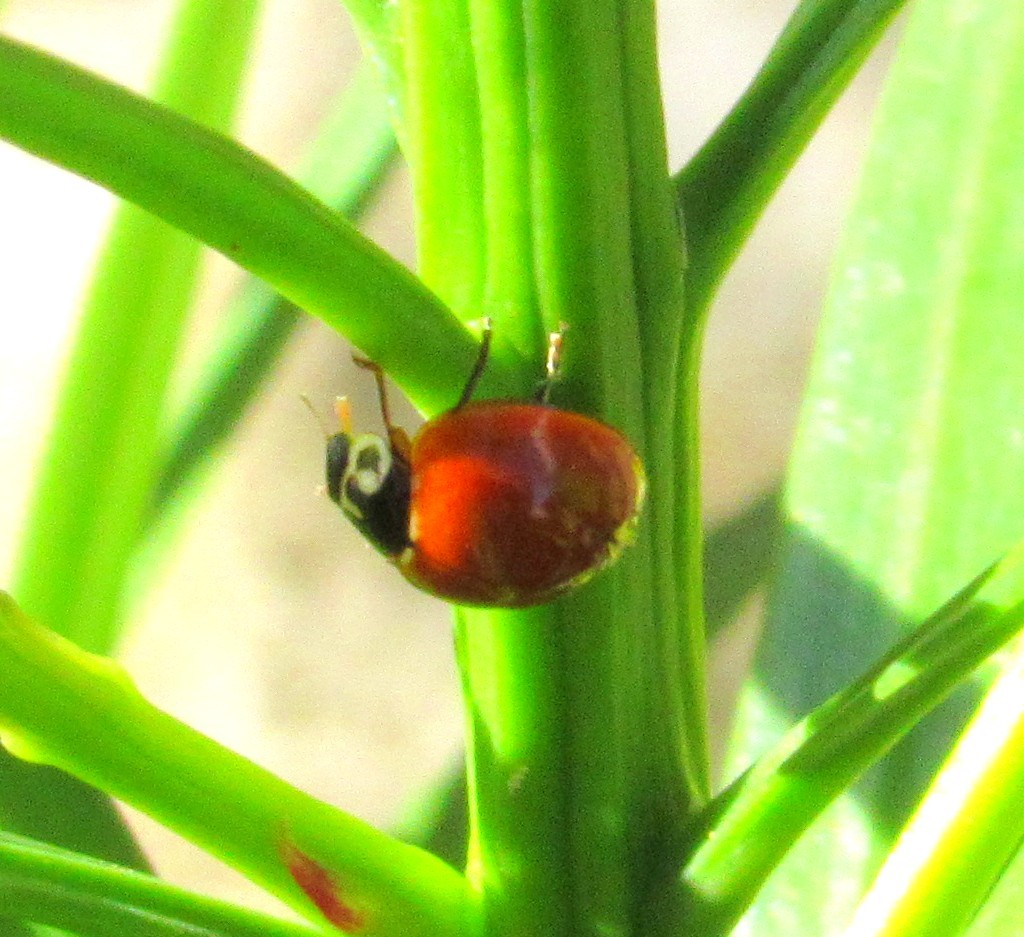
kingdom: Animalia
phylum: Arthropoda
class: Insecta
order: Coleoptera
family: Coccinellidae
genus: Cycloneda
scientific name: Cycloneda sanguinea
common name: Ladybird beetle
